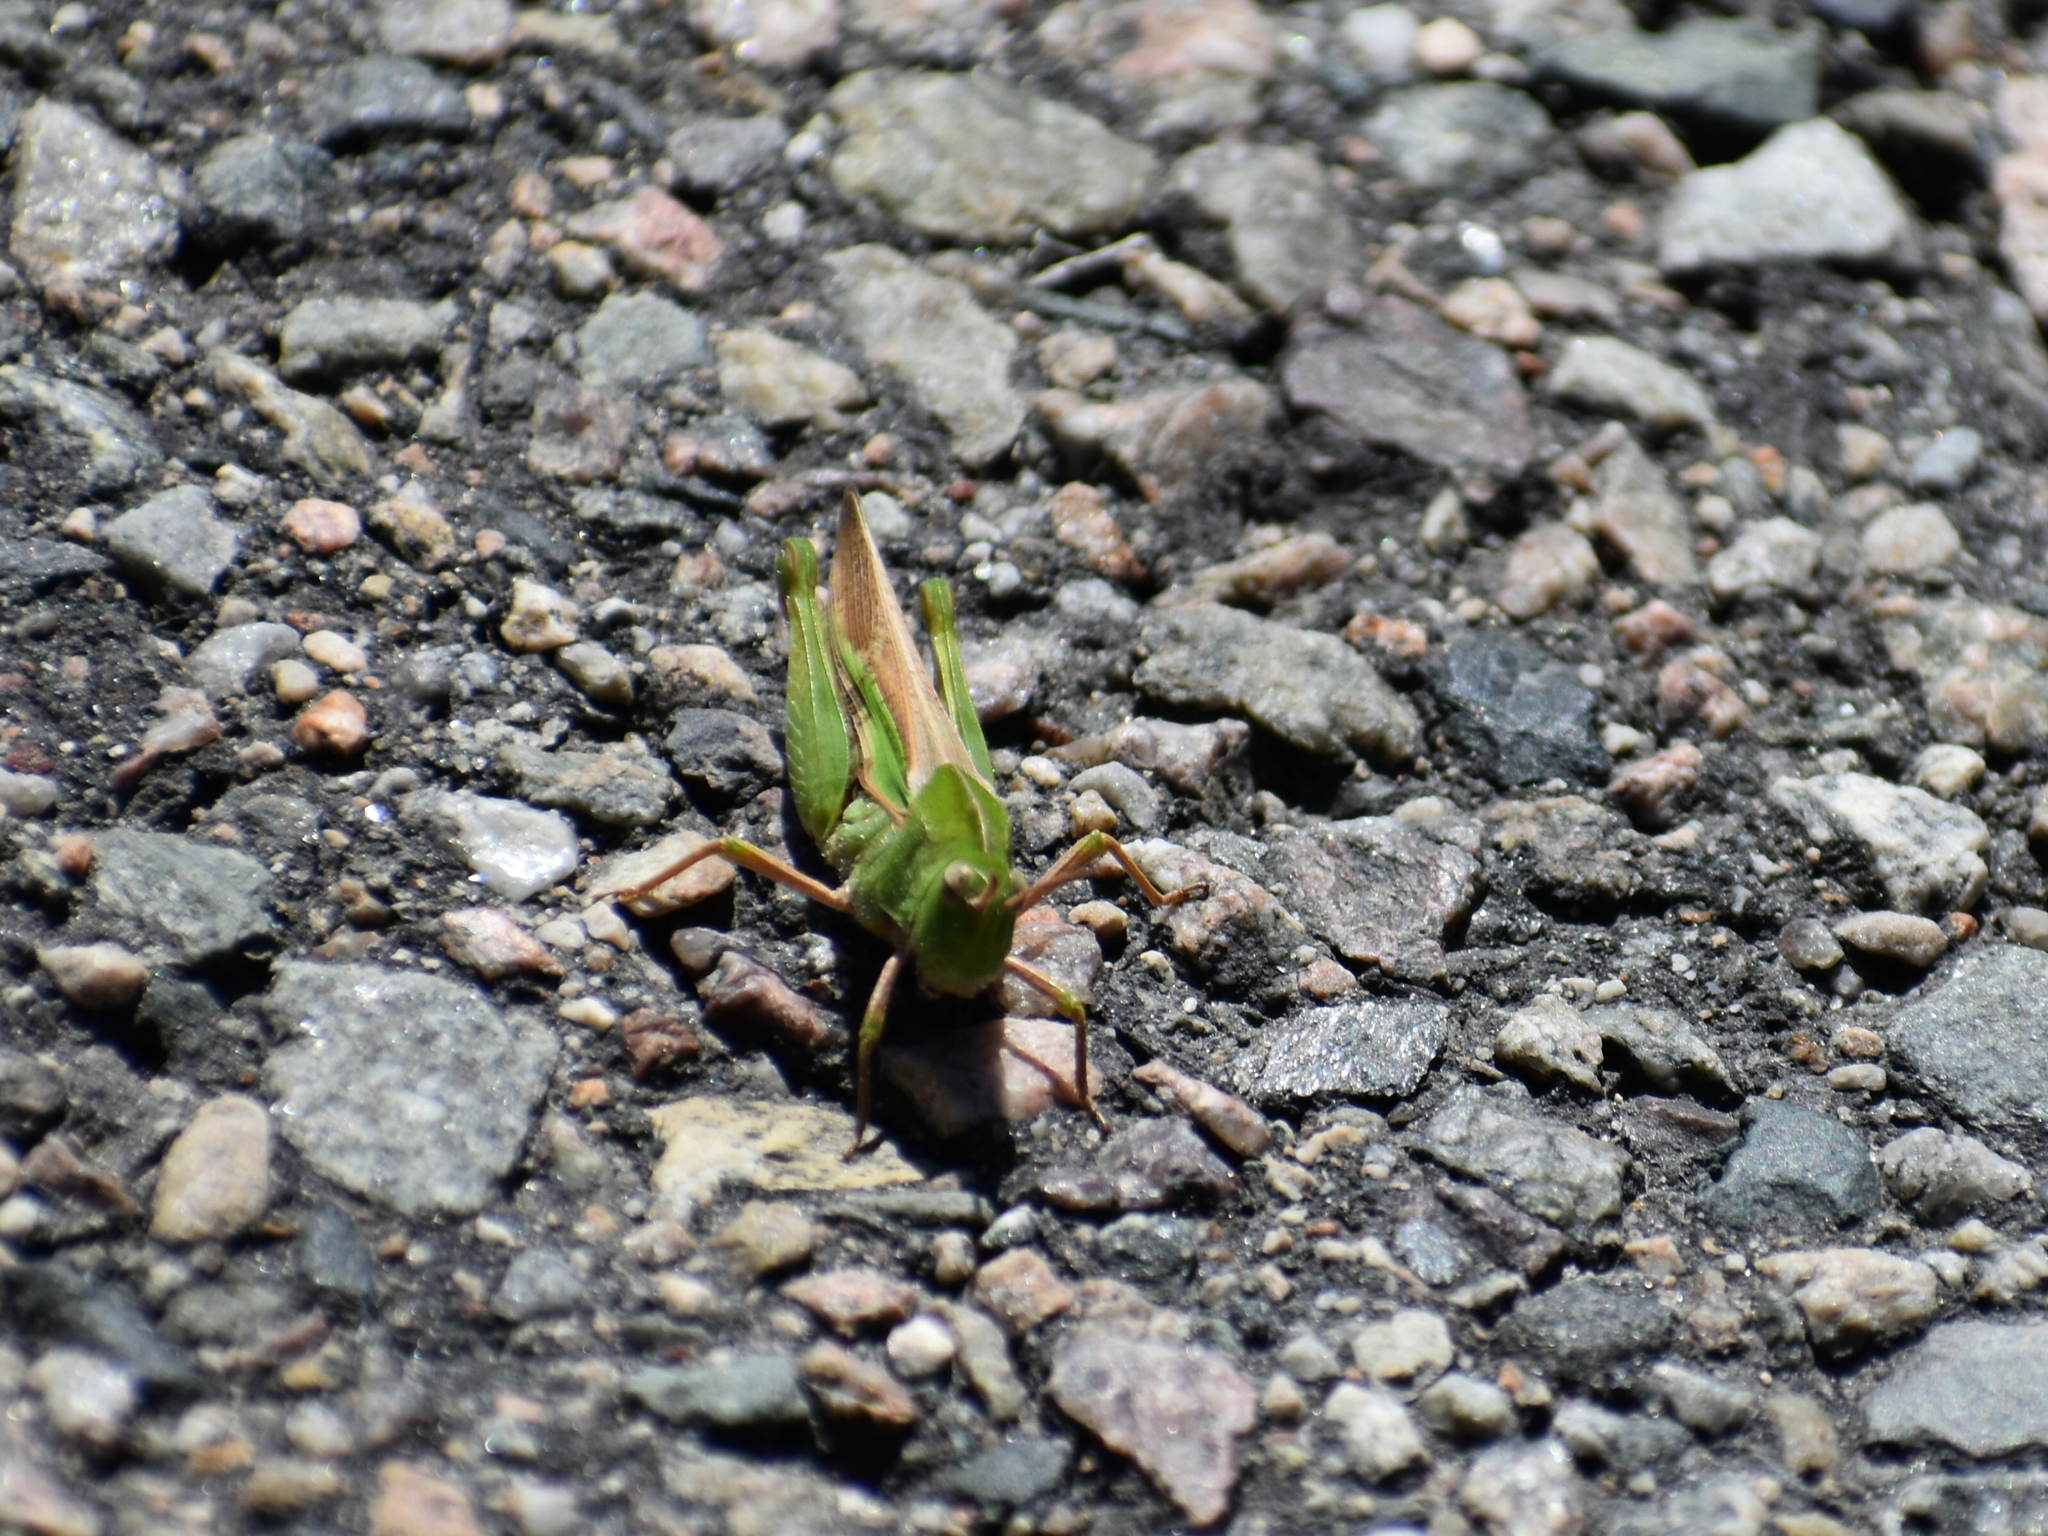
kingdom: Animalia
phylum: Arthropoda
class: Insecta
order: Orthoptera
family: Acrididae
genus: Chortophaga
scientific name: Chortophaga viridifasciata
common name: Green-striped grasshopper
